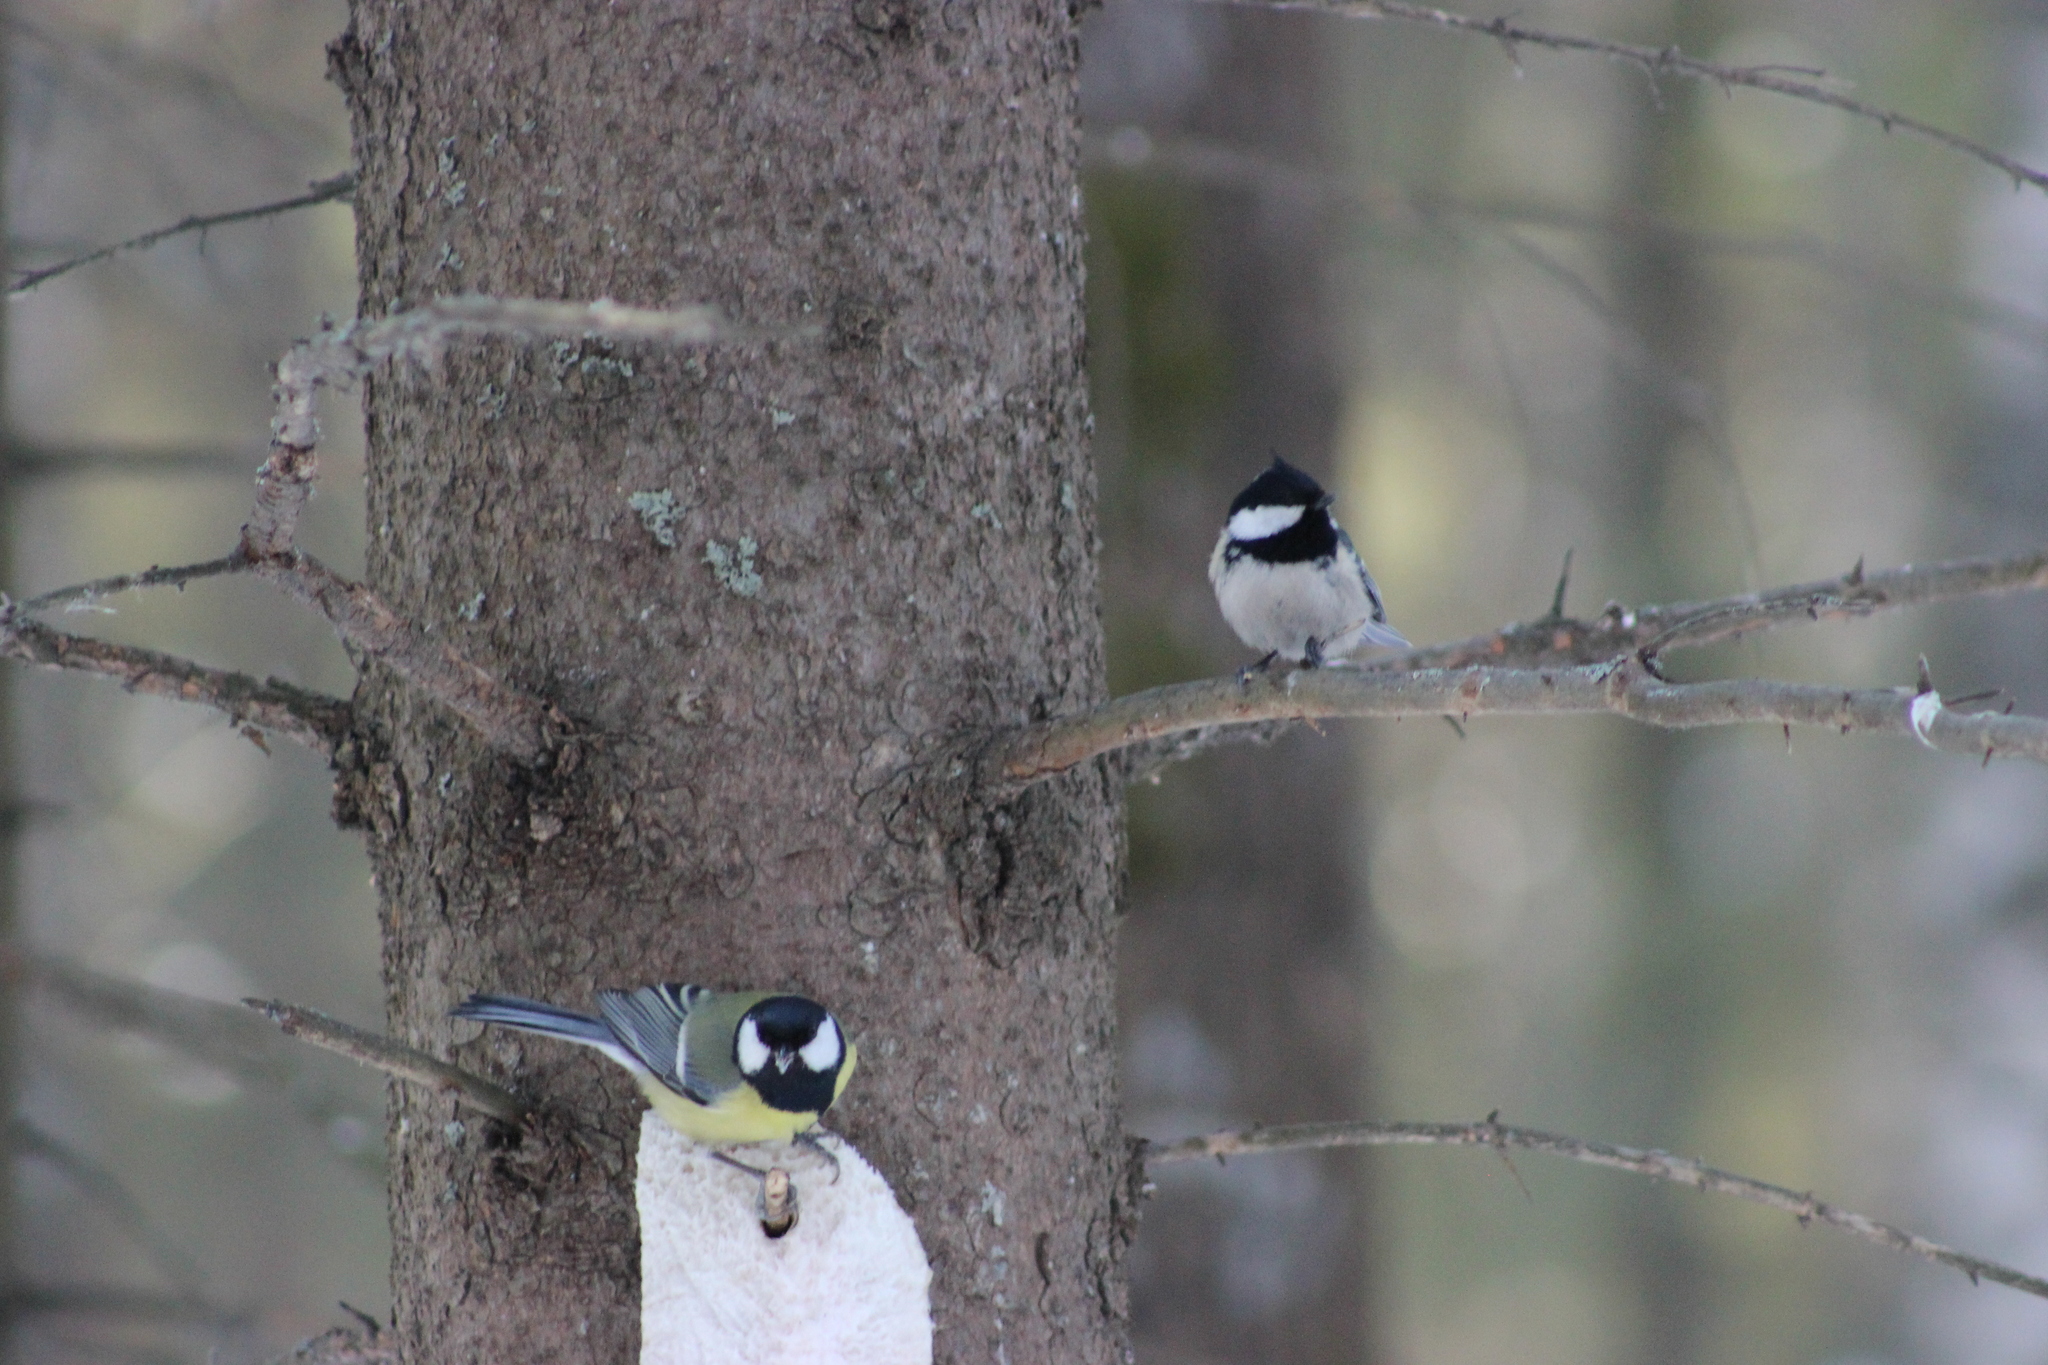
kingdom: Animalia
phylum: Chordata
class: Aves
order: Passeriformes
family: Paridae
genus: Periparus
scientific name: Periparus ater
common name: Coal tit
